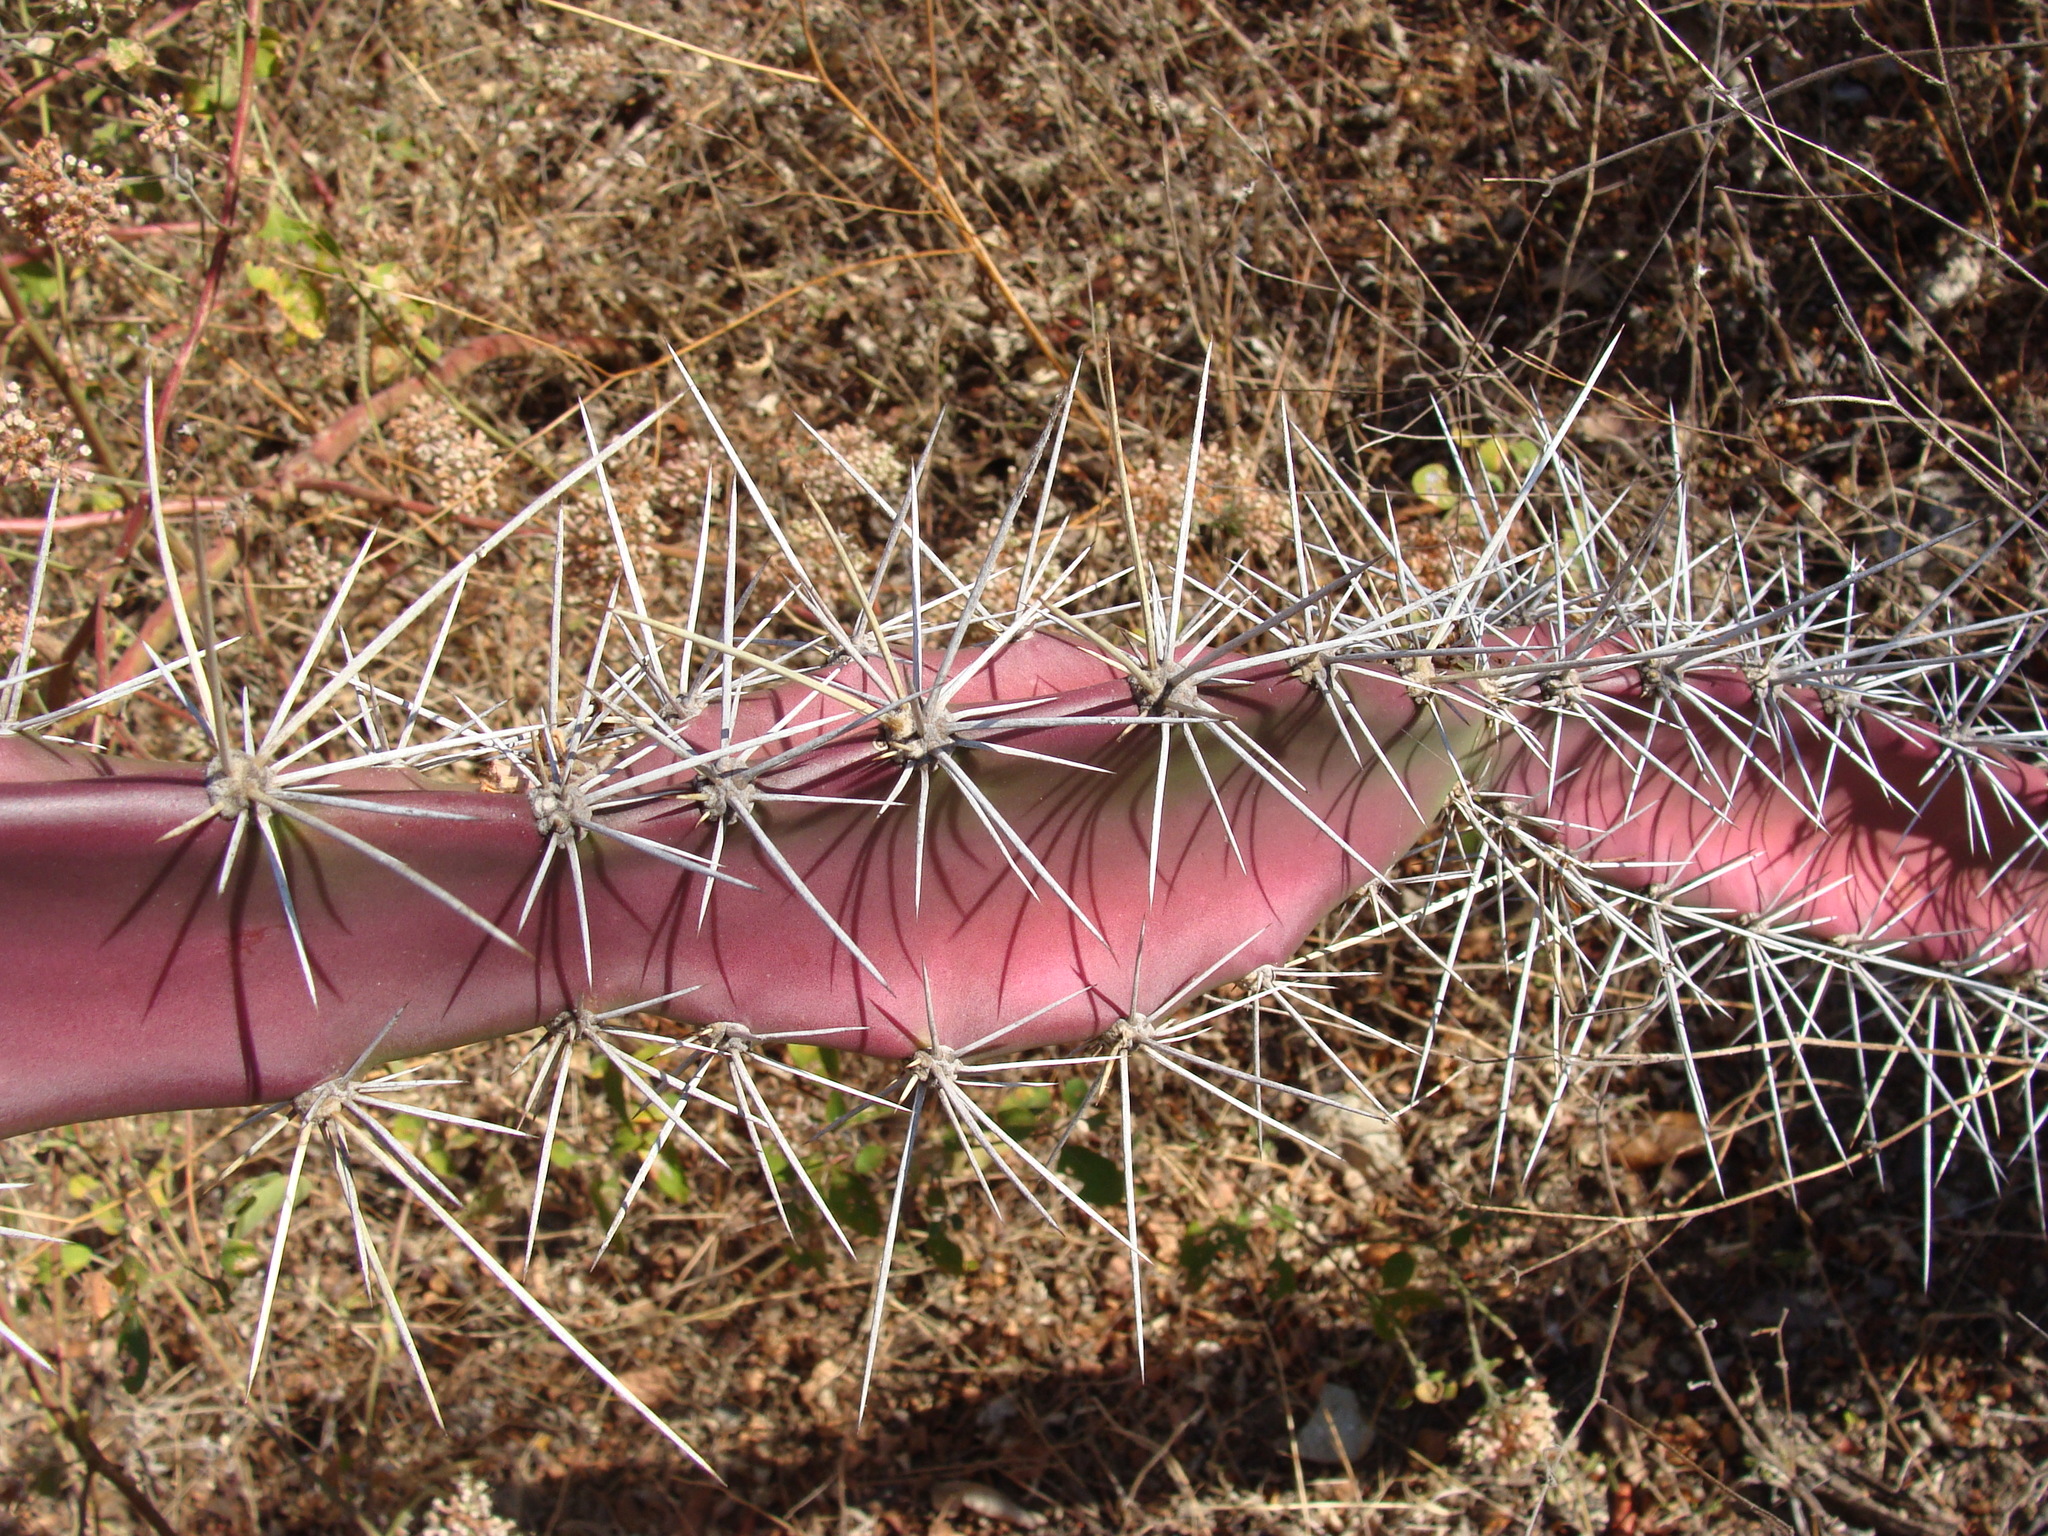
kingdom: Plantae
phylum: Tracheophyta
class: Magnoliopsida
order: Caryophyllales
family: Cactaceae
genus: Acanthocereus
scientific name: Acanthocereus tetragonus
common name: Triangle cactus
